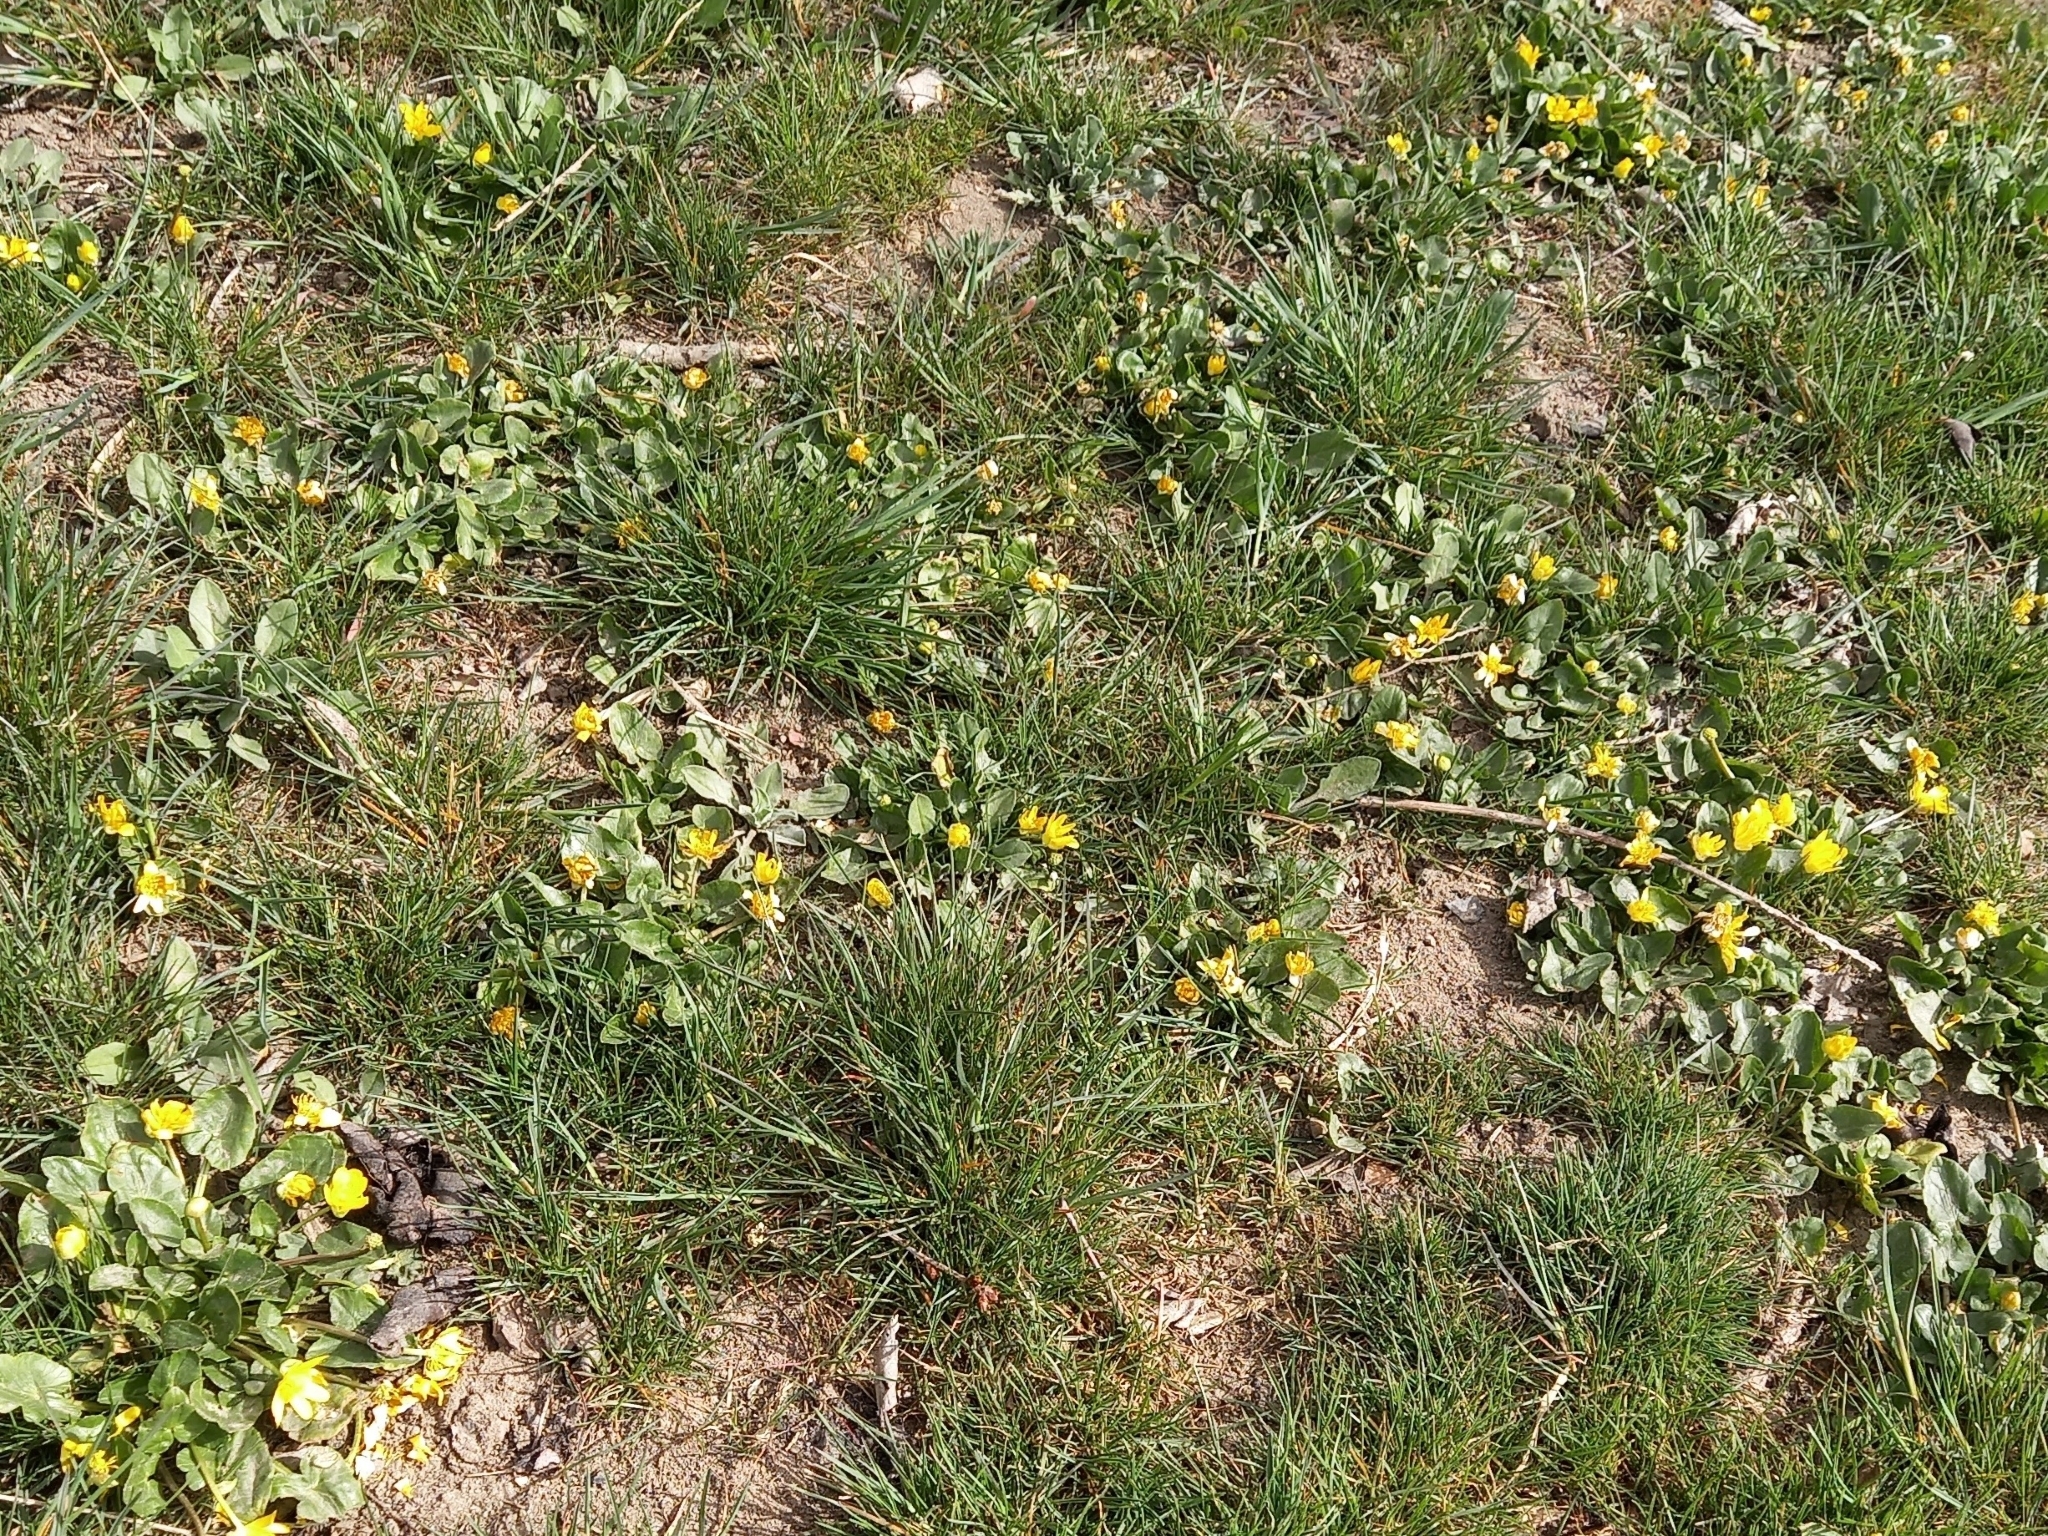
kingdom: Plantae
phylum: Tracheophyta
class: Magnoliopsida
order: Ranunculales
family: Ranunculaceae
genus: Ficaria
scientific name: Ficaria verna
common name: Lesser celandine
